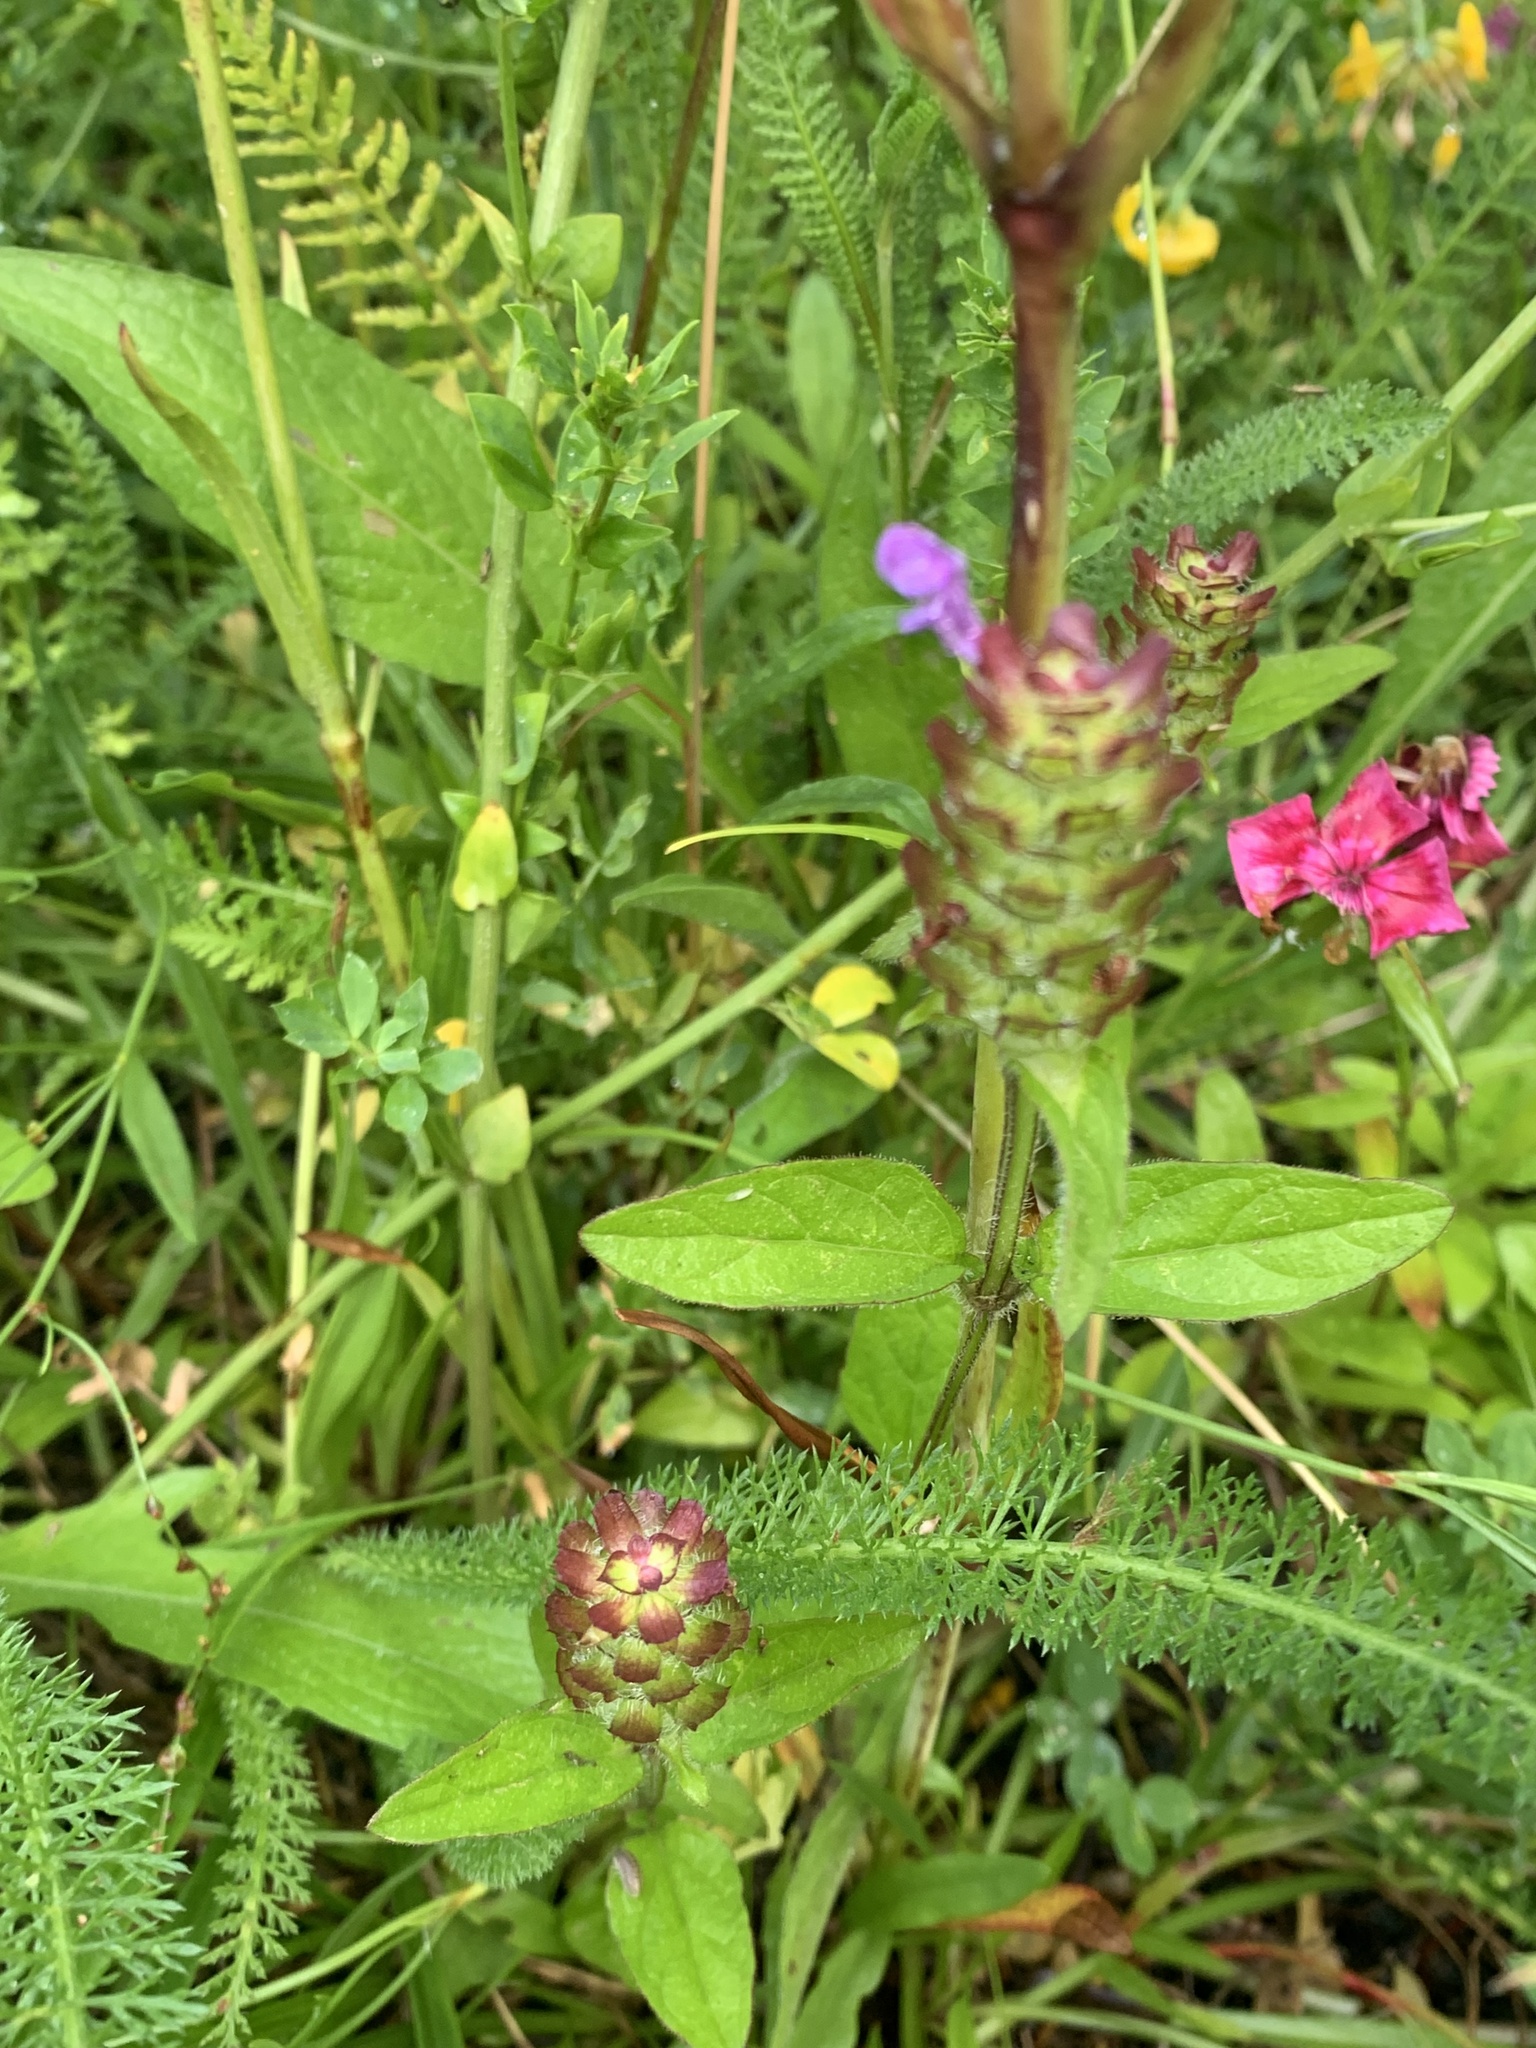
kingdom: Plantae
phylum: Tracheophyta
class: Magnoliopsida
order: Lamiales
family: Lamiaceae
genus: Prunella
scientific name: Prunella vulgaris
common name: Heal-all
